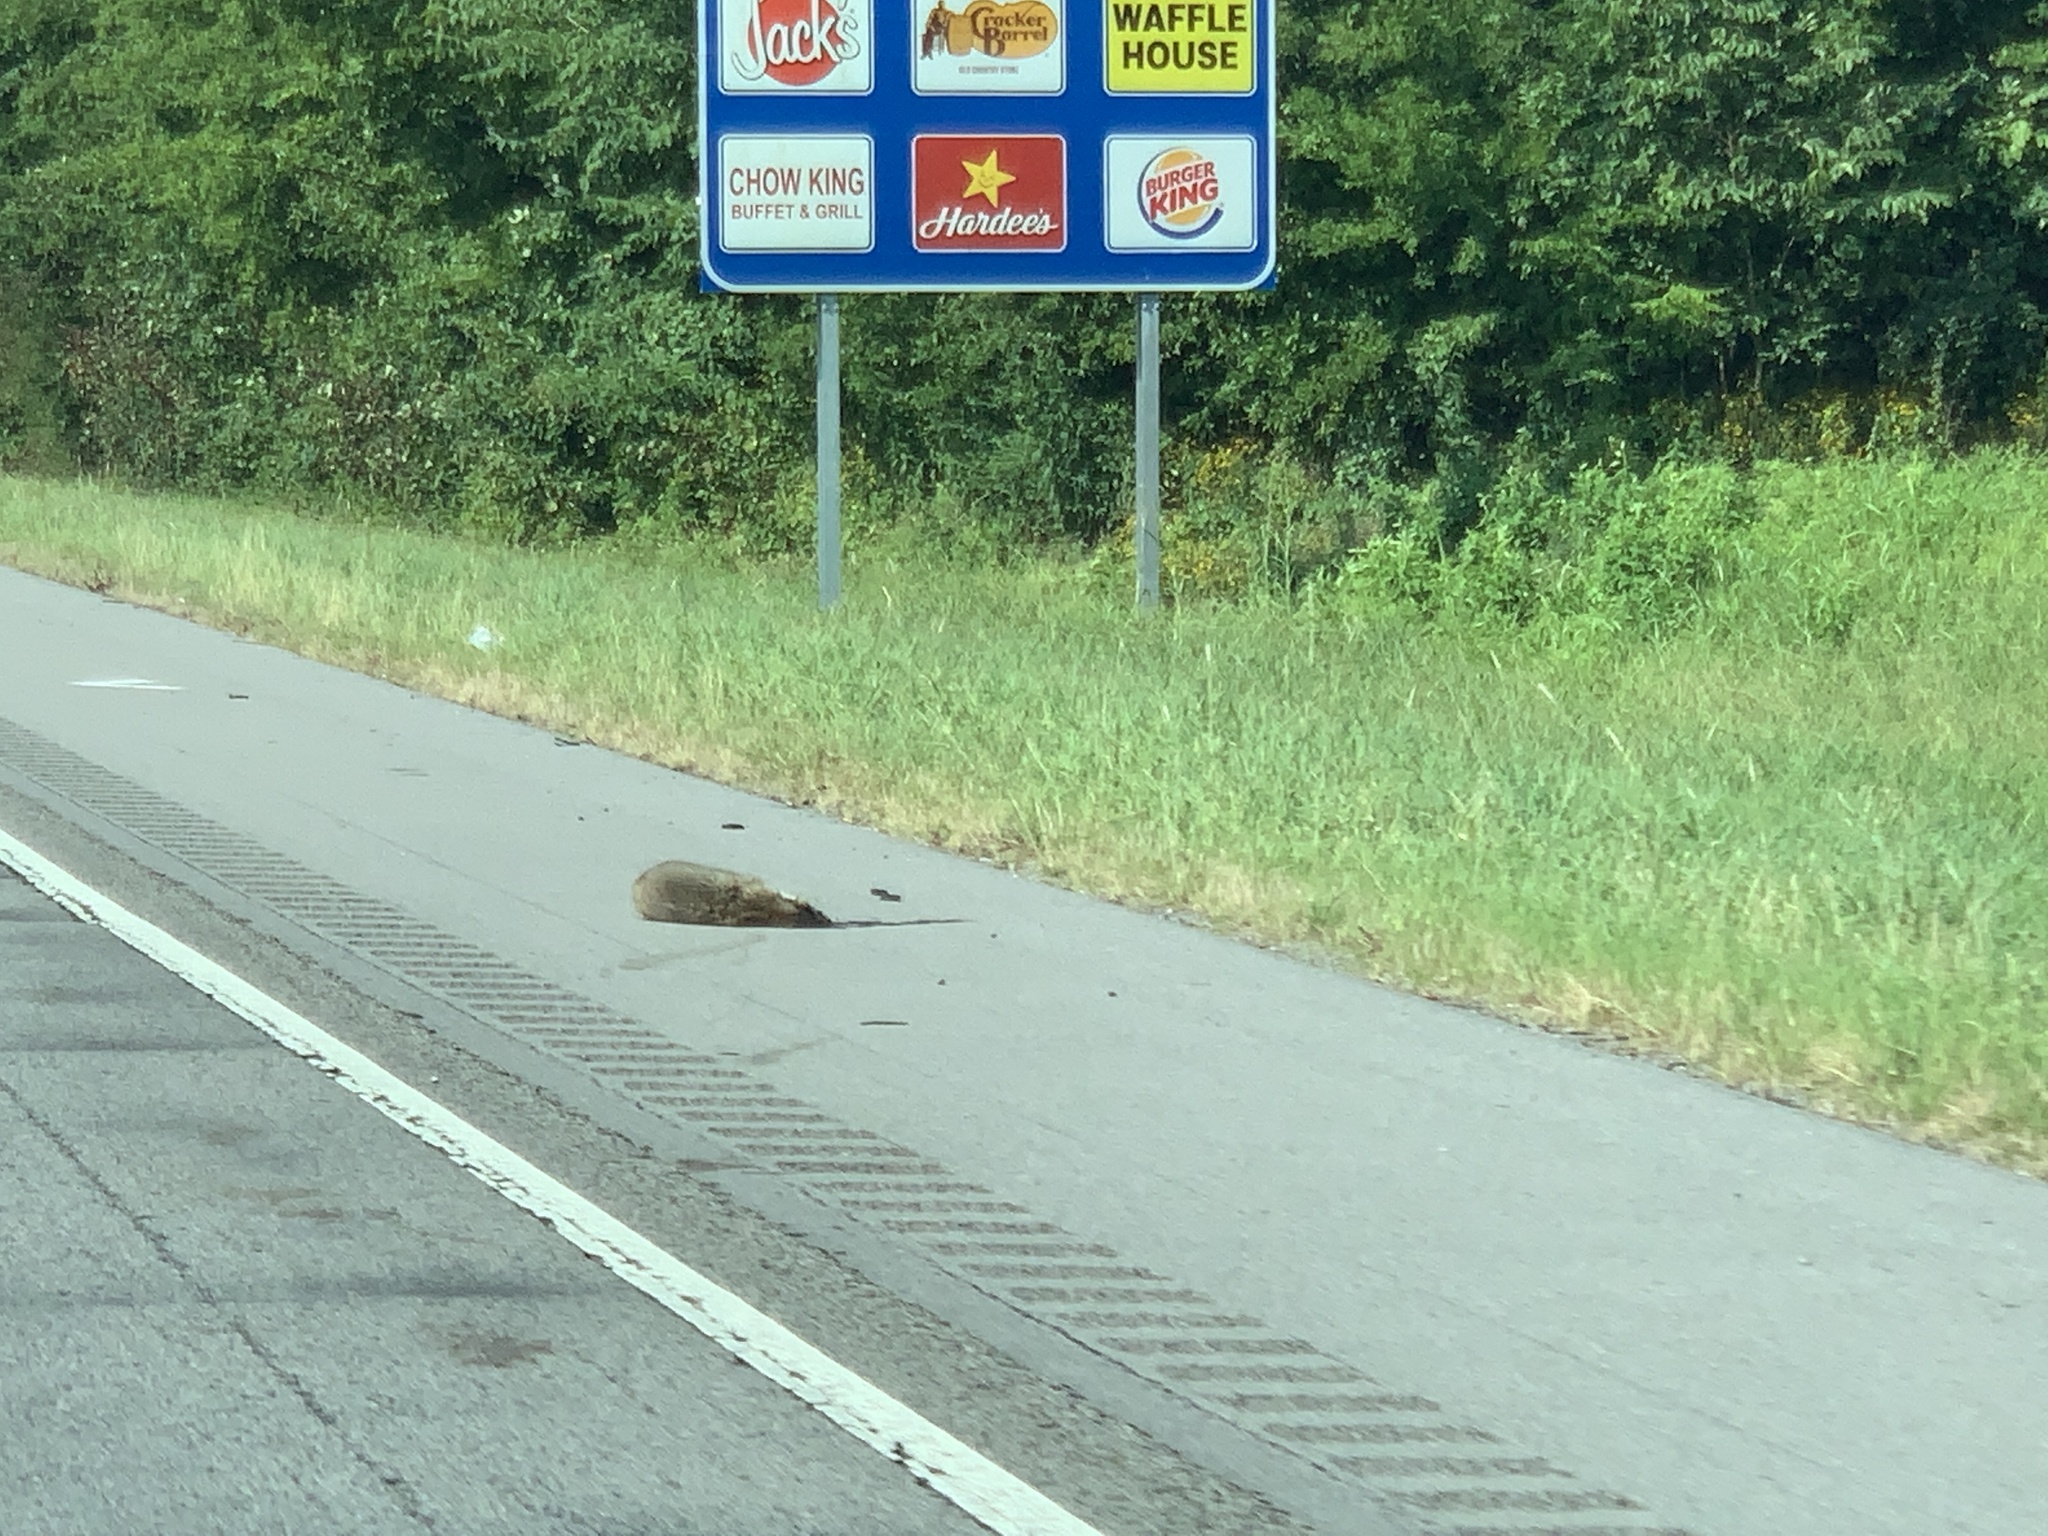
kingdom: Animalia
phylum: Chordata
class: Mammalia
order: Carnivora
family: Procyonidae
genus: Procyon
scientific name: Procyon lotor
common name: Raccoon
